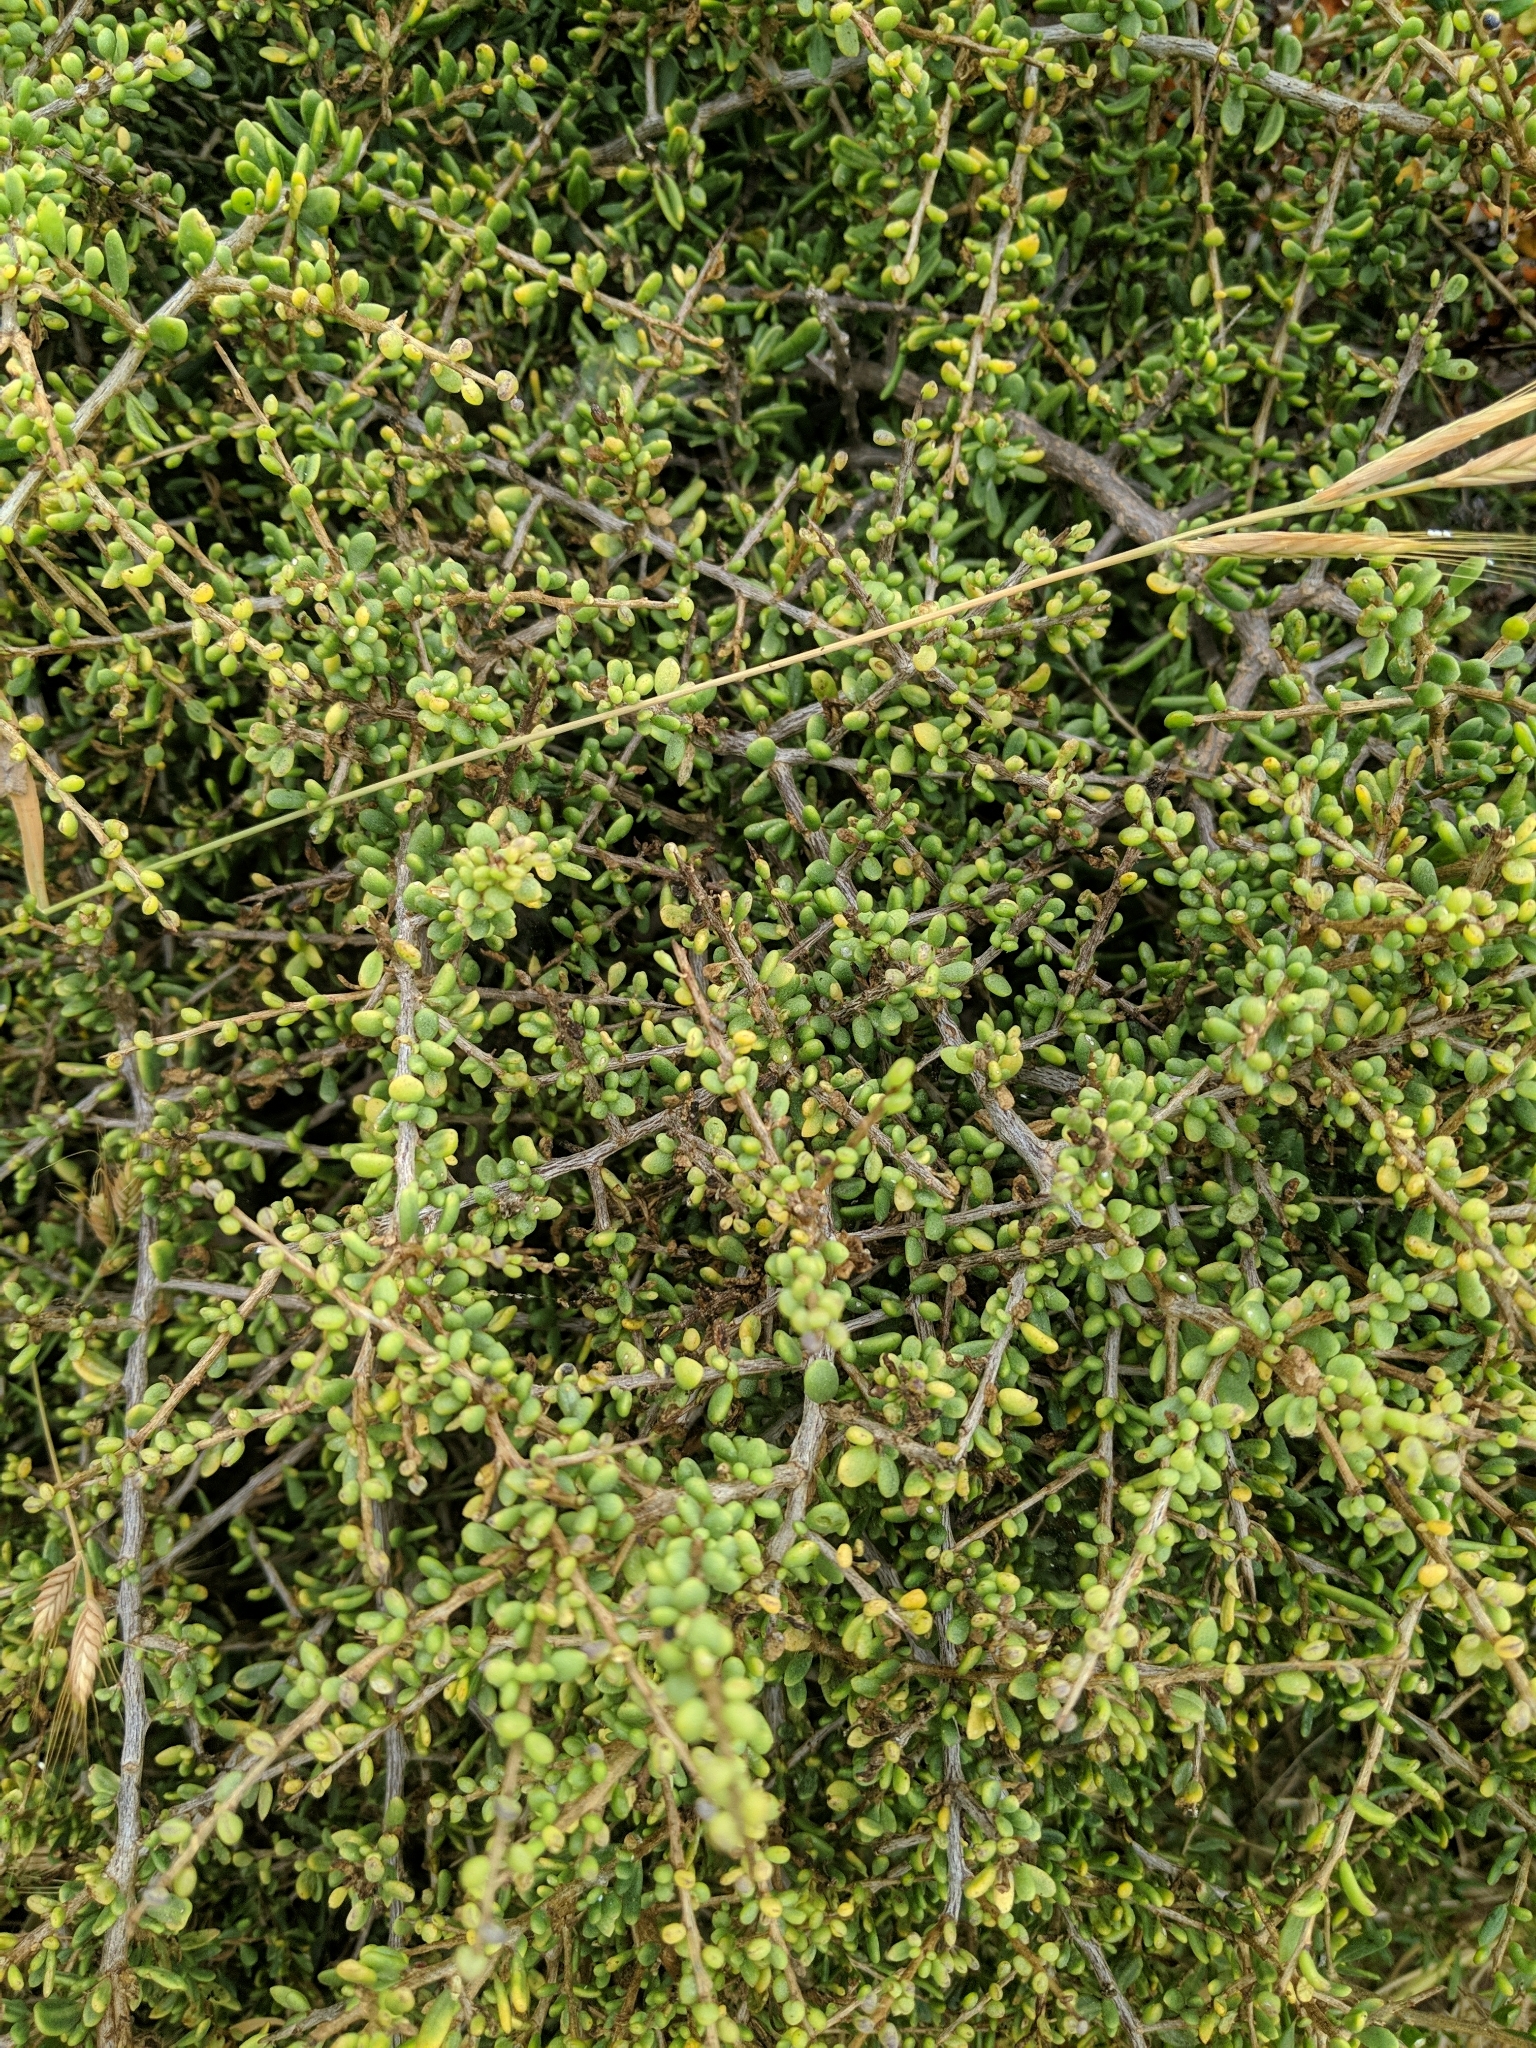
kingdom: Plantae
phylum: Tracheophyta
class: Magnoliopsida
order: Solanales
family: Solanaceae
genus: Lycium
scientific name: Lycium californicum
